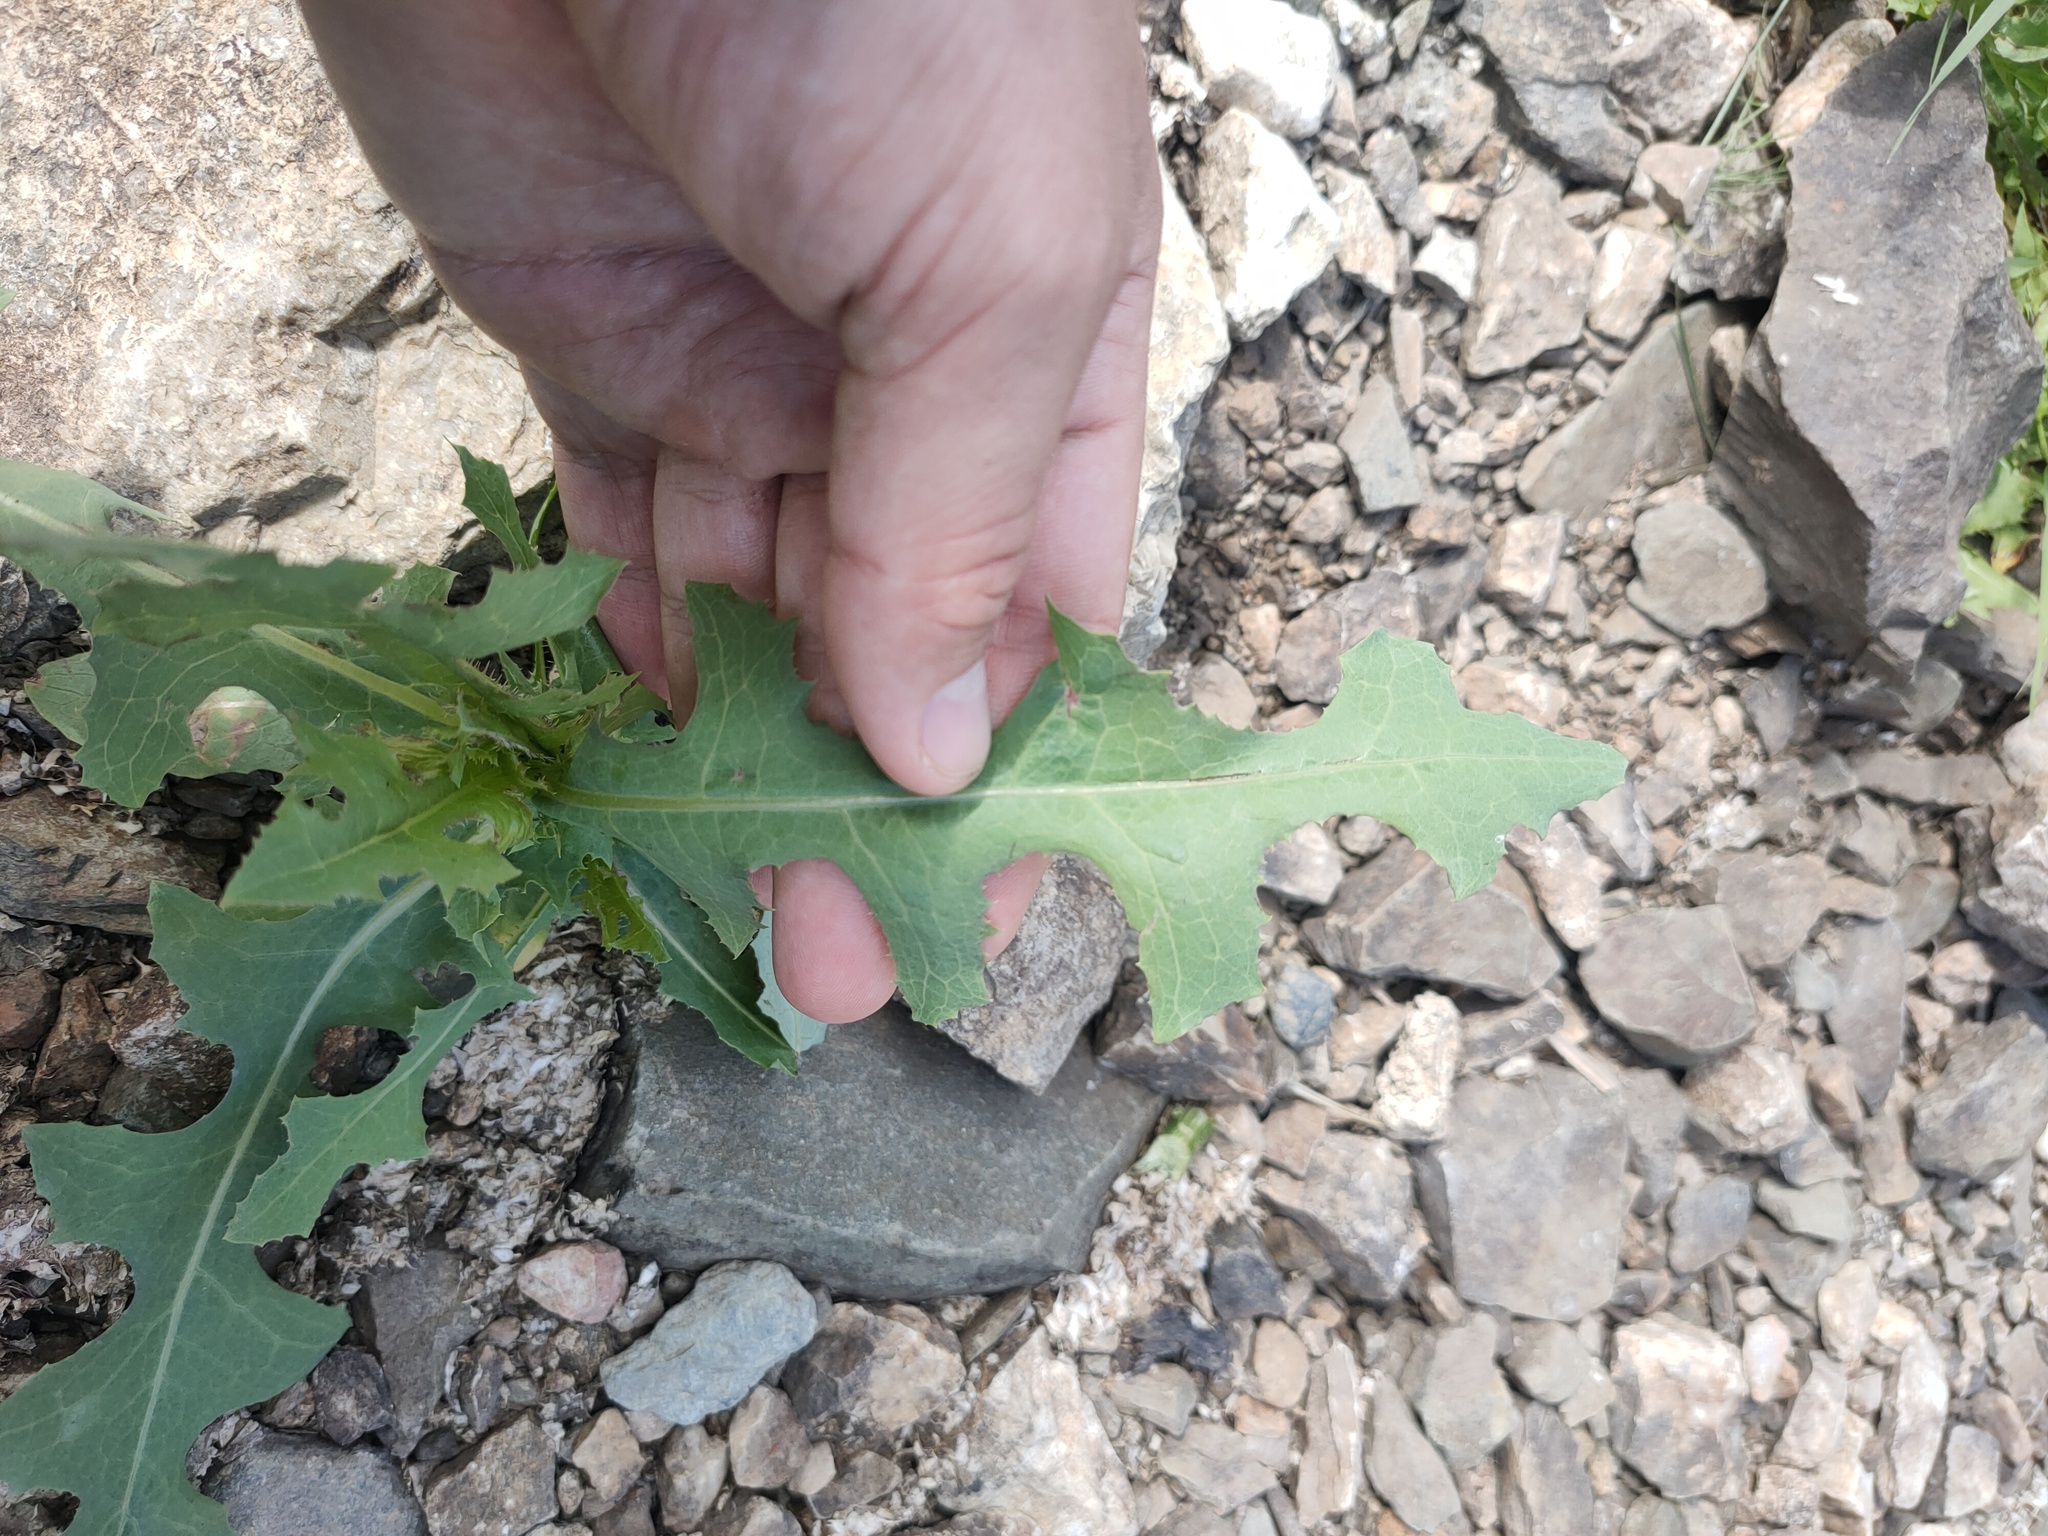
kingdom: Plantae
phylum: Tracheophyta
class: Magnoliopsida
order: Asterales
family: Asteraceae
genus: Lactuca
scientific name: Lactuca serriola
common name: Prickly lettuce
